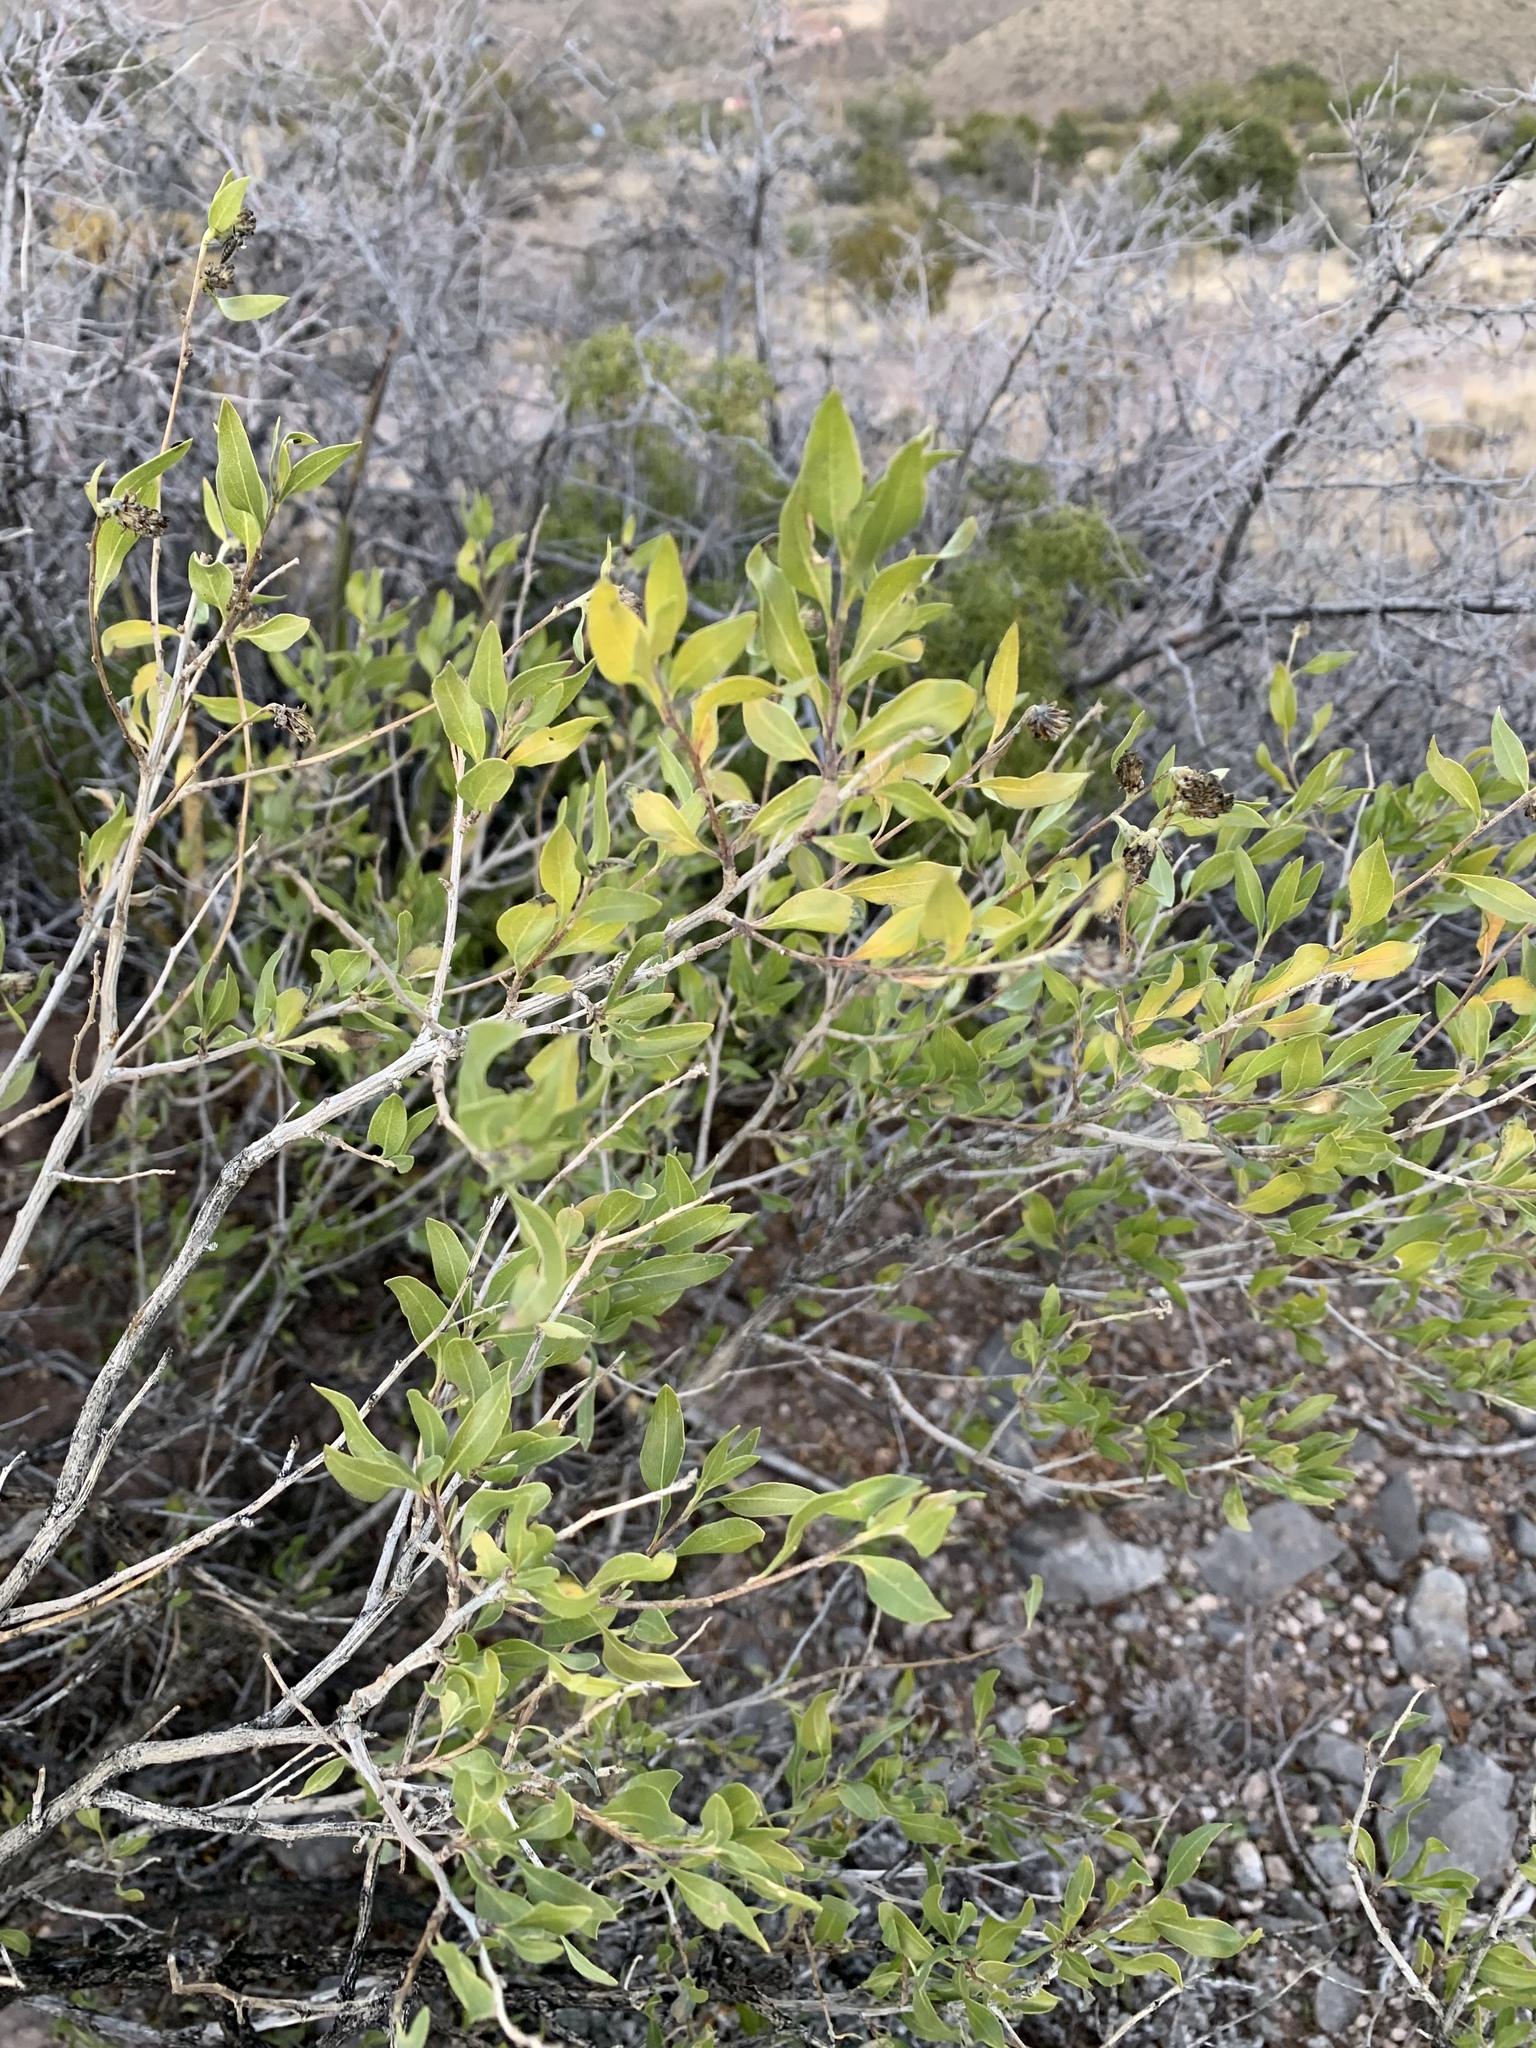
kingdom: Plantae
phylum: Tracheophyta
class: Magnoliopsida
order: Asterales
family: Asteraceae
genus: Flourensia
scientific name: Flourensia cernua
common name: Varnishbush
